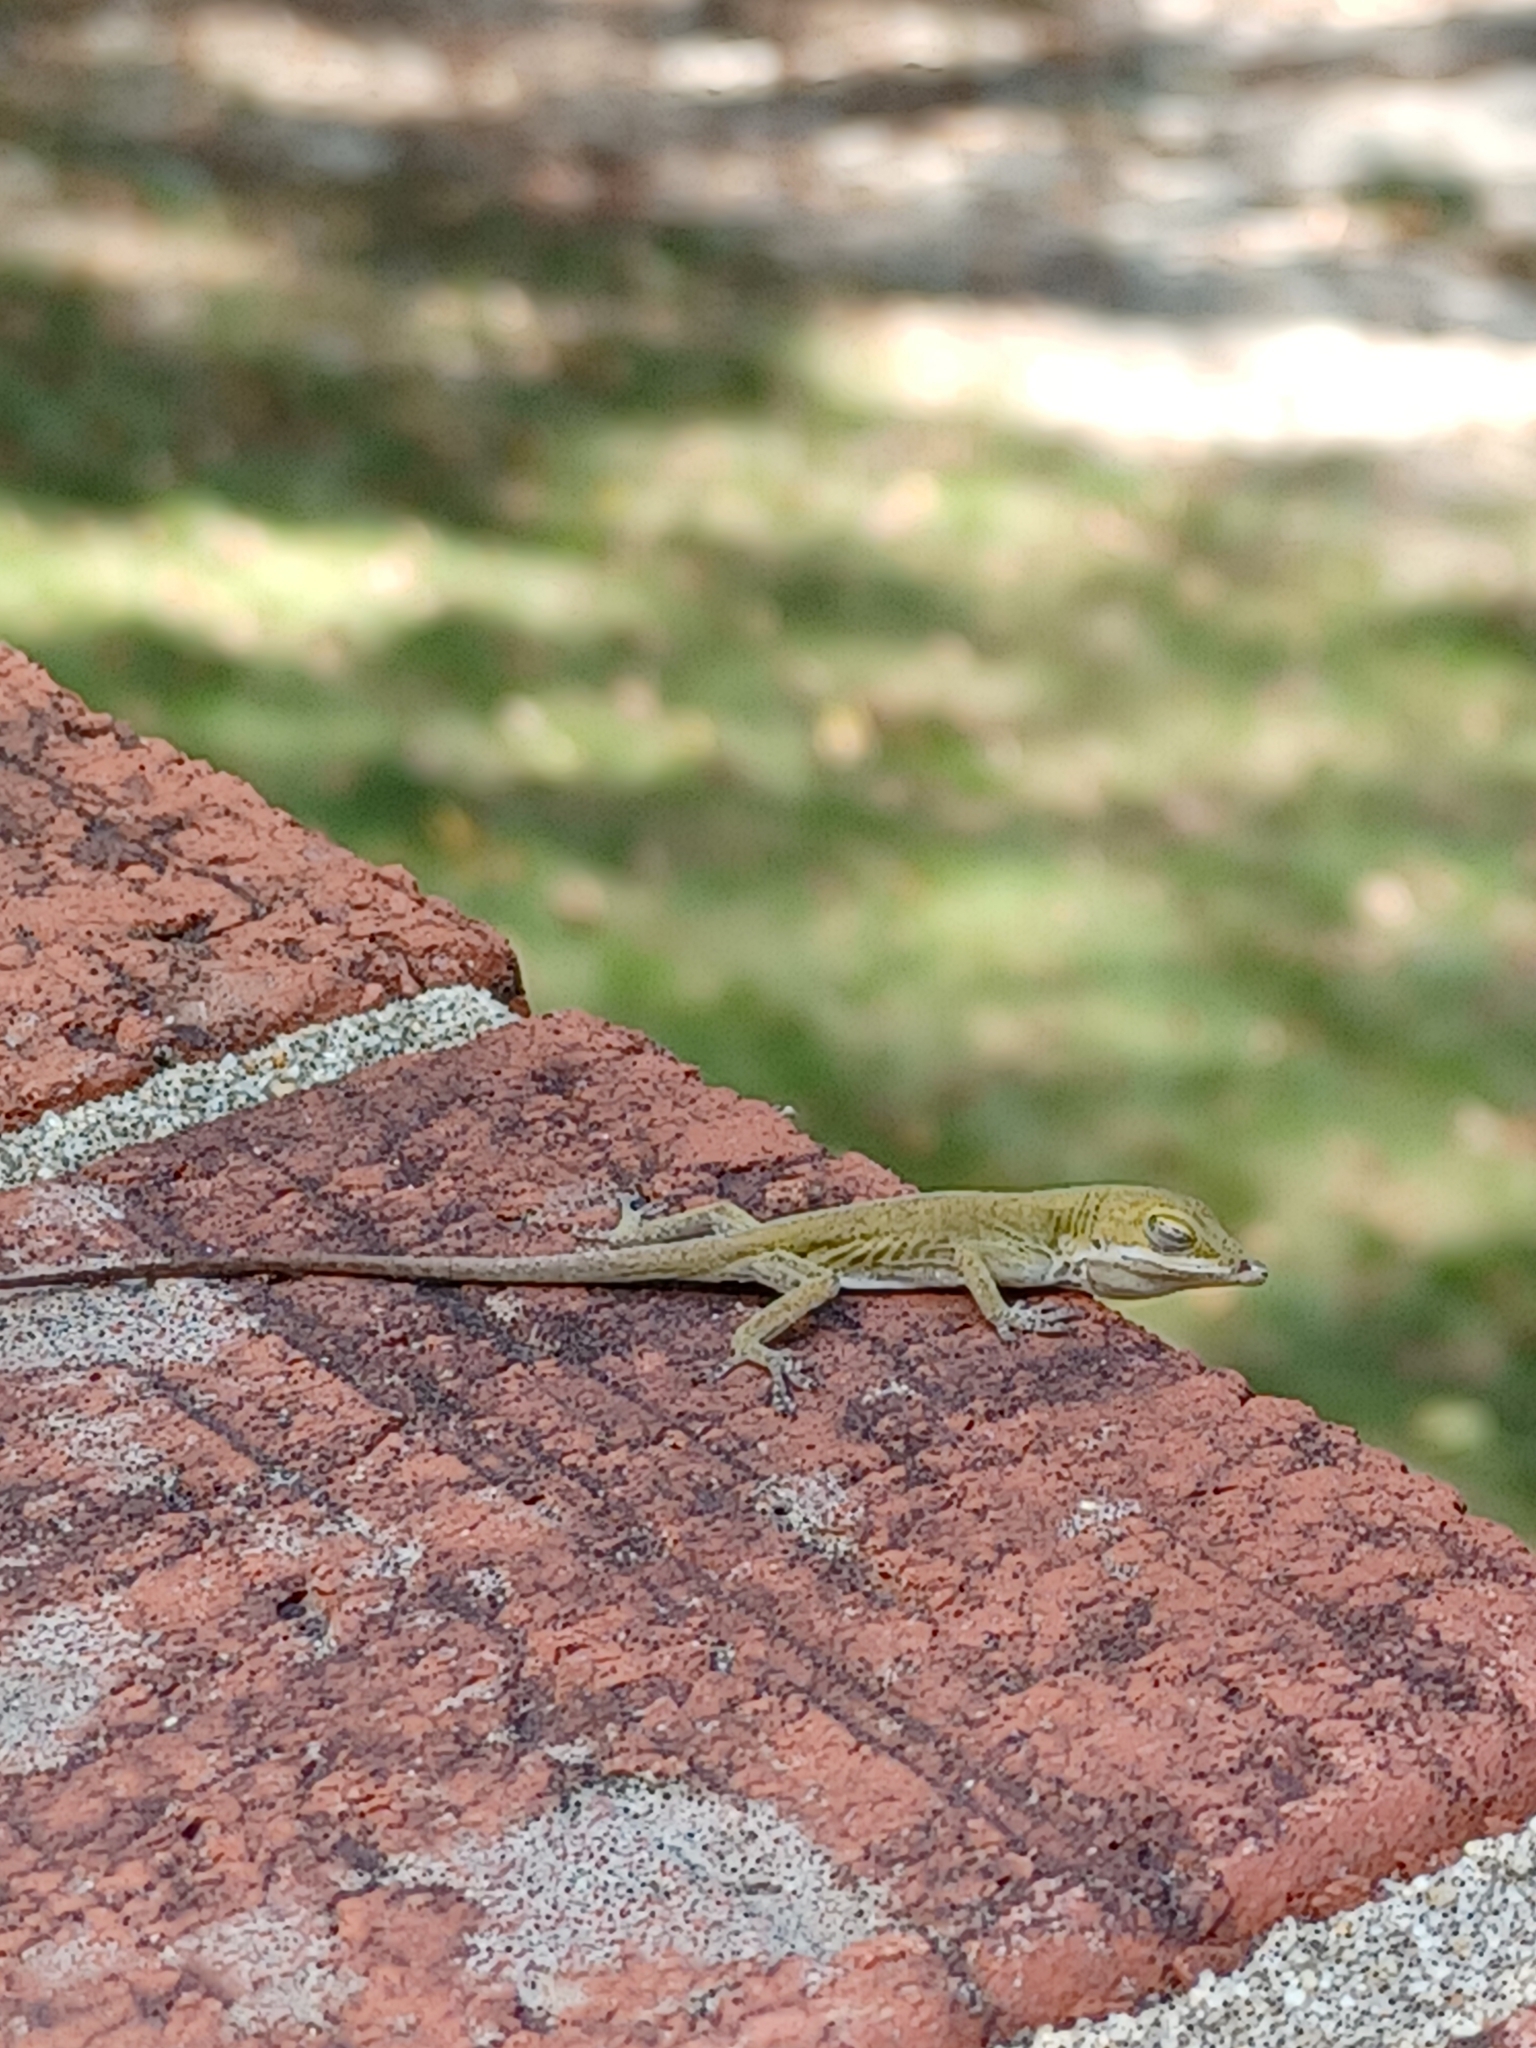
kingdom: Animalia
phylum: Chordata
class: Squamata
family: Dactyloidae
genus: Anolis
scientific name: Anolis carolinensis
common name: Green anole
